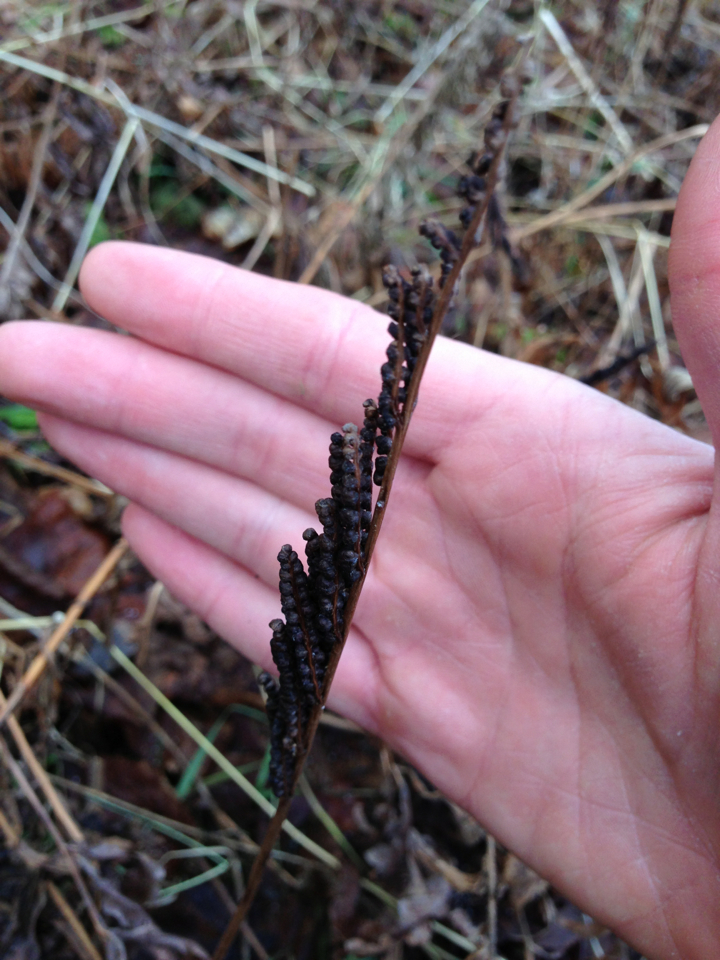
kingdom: Plantae
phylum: Tracheophyta
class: Polypodiopsida
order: Polypodiales
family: Onocleaceae
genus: Onoclea
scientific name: Onoclea sensibilis
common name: Sensitive fern
